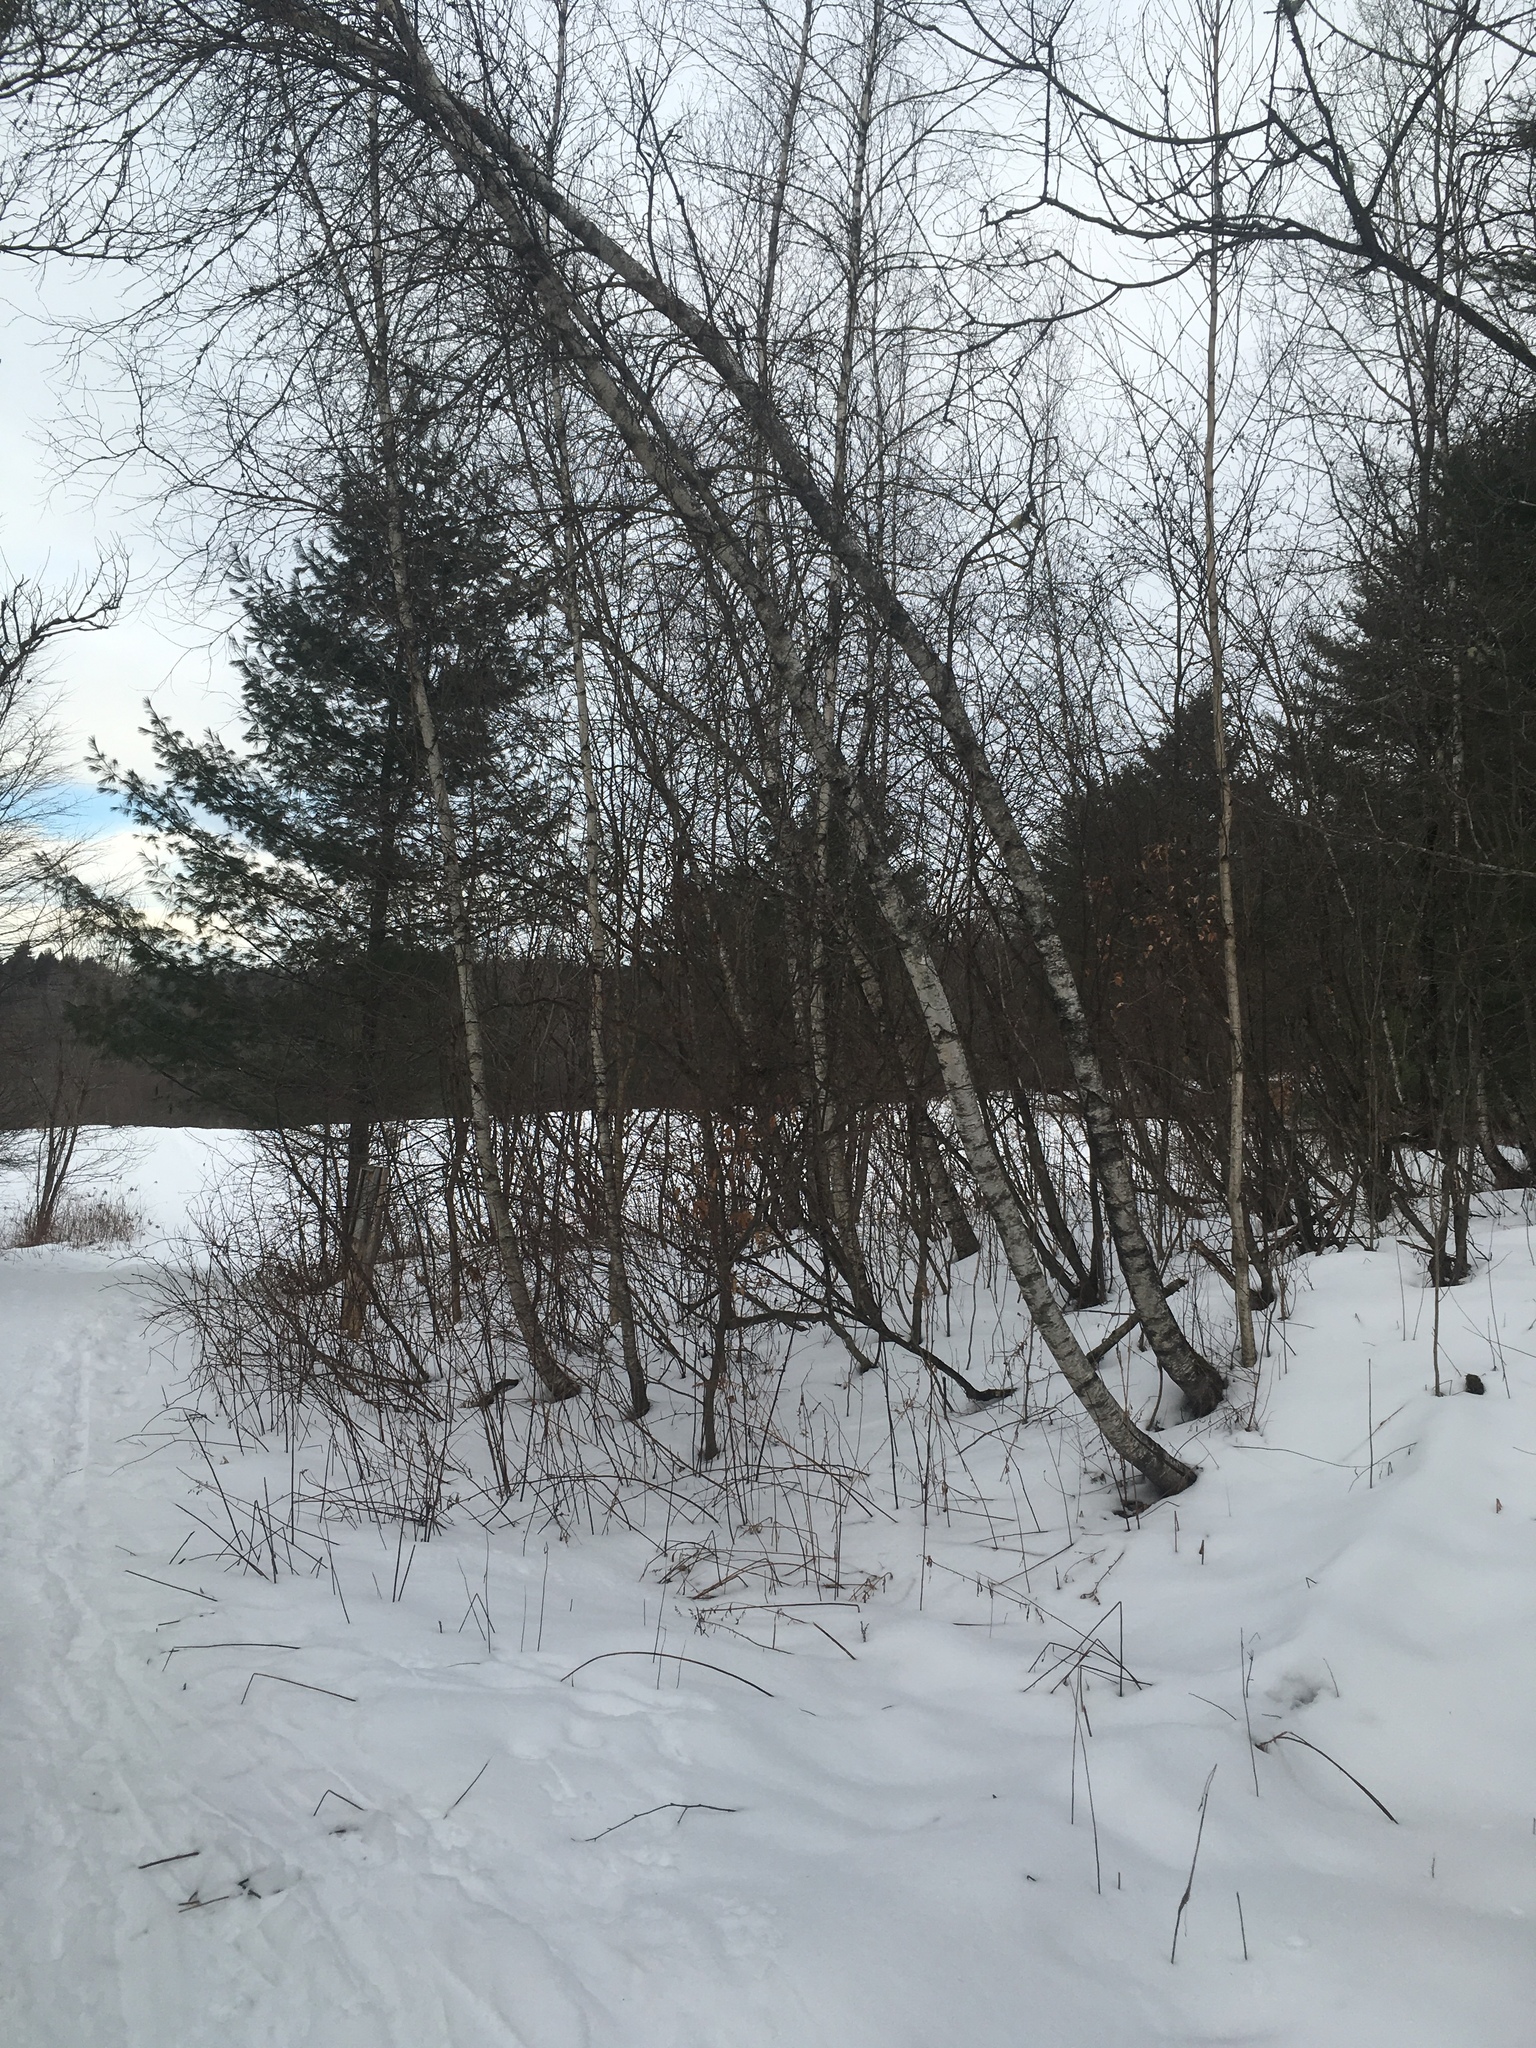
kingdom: Plantae
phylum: Tracheophyta
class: Magnoliopsida
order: Fagales
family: Betulaceae
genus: Betula
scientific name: Betula populifolia
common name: Fire birch
